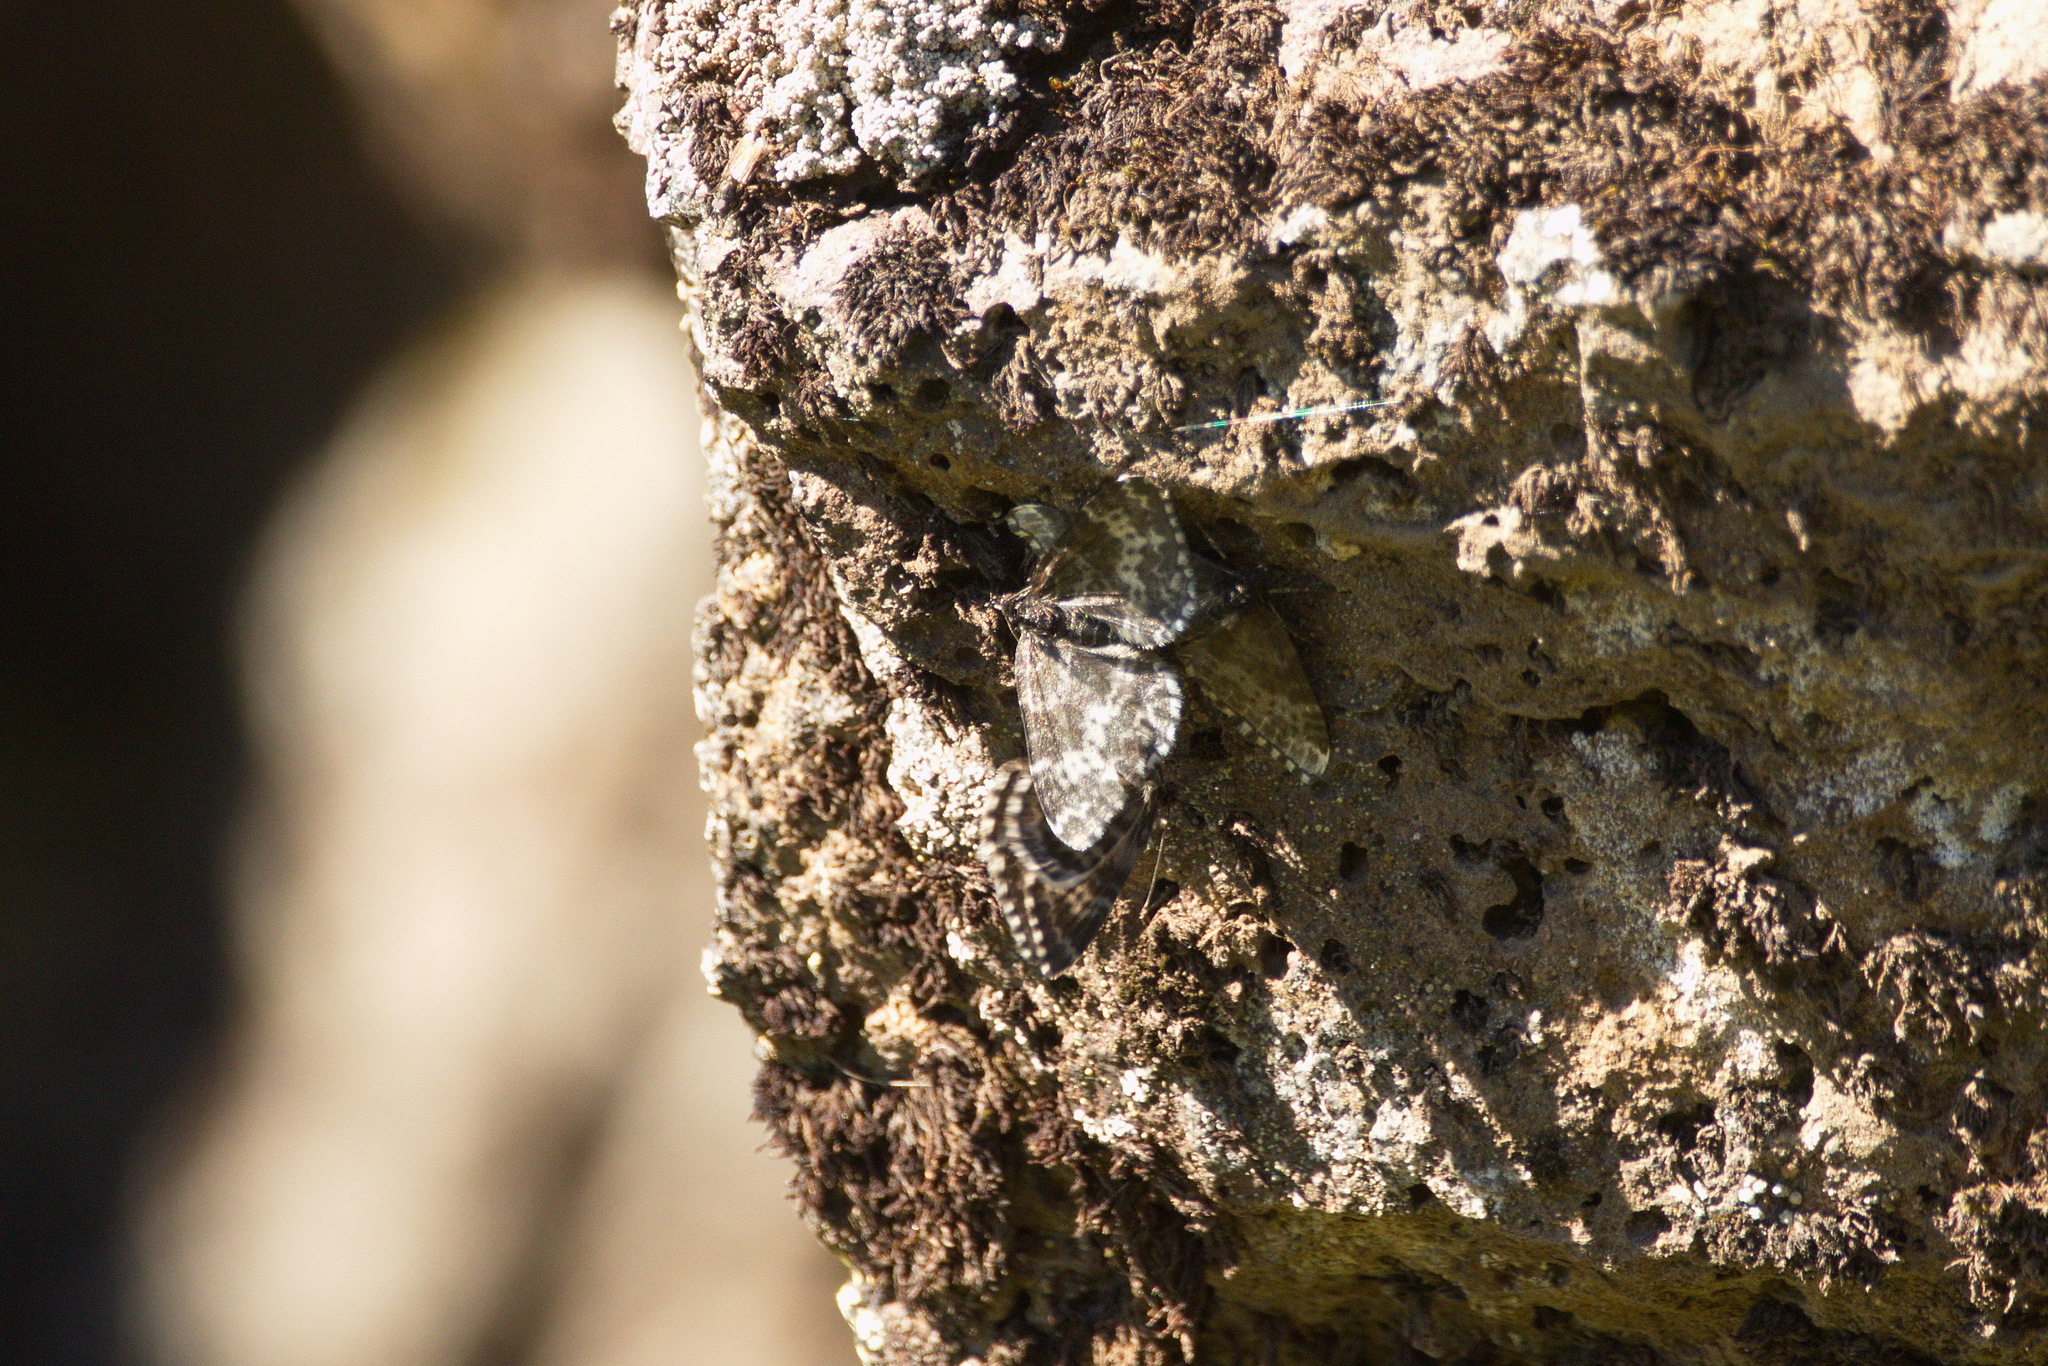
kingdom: Animalia
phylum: Arthropoda
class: Insecta
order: Lepidoptera
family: Geometridae
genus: Rheumaptera
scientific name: Rheumaptera hastata
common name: Argent & sable
